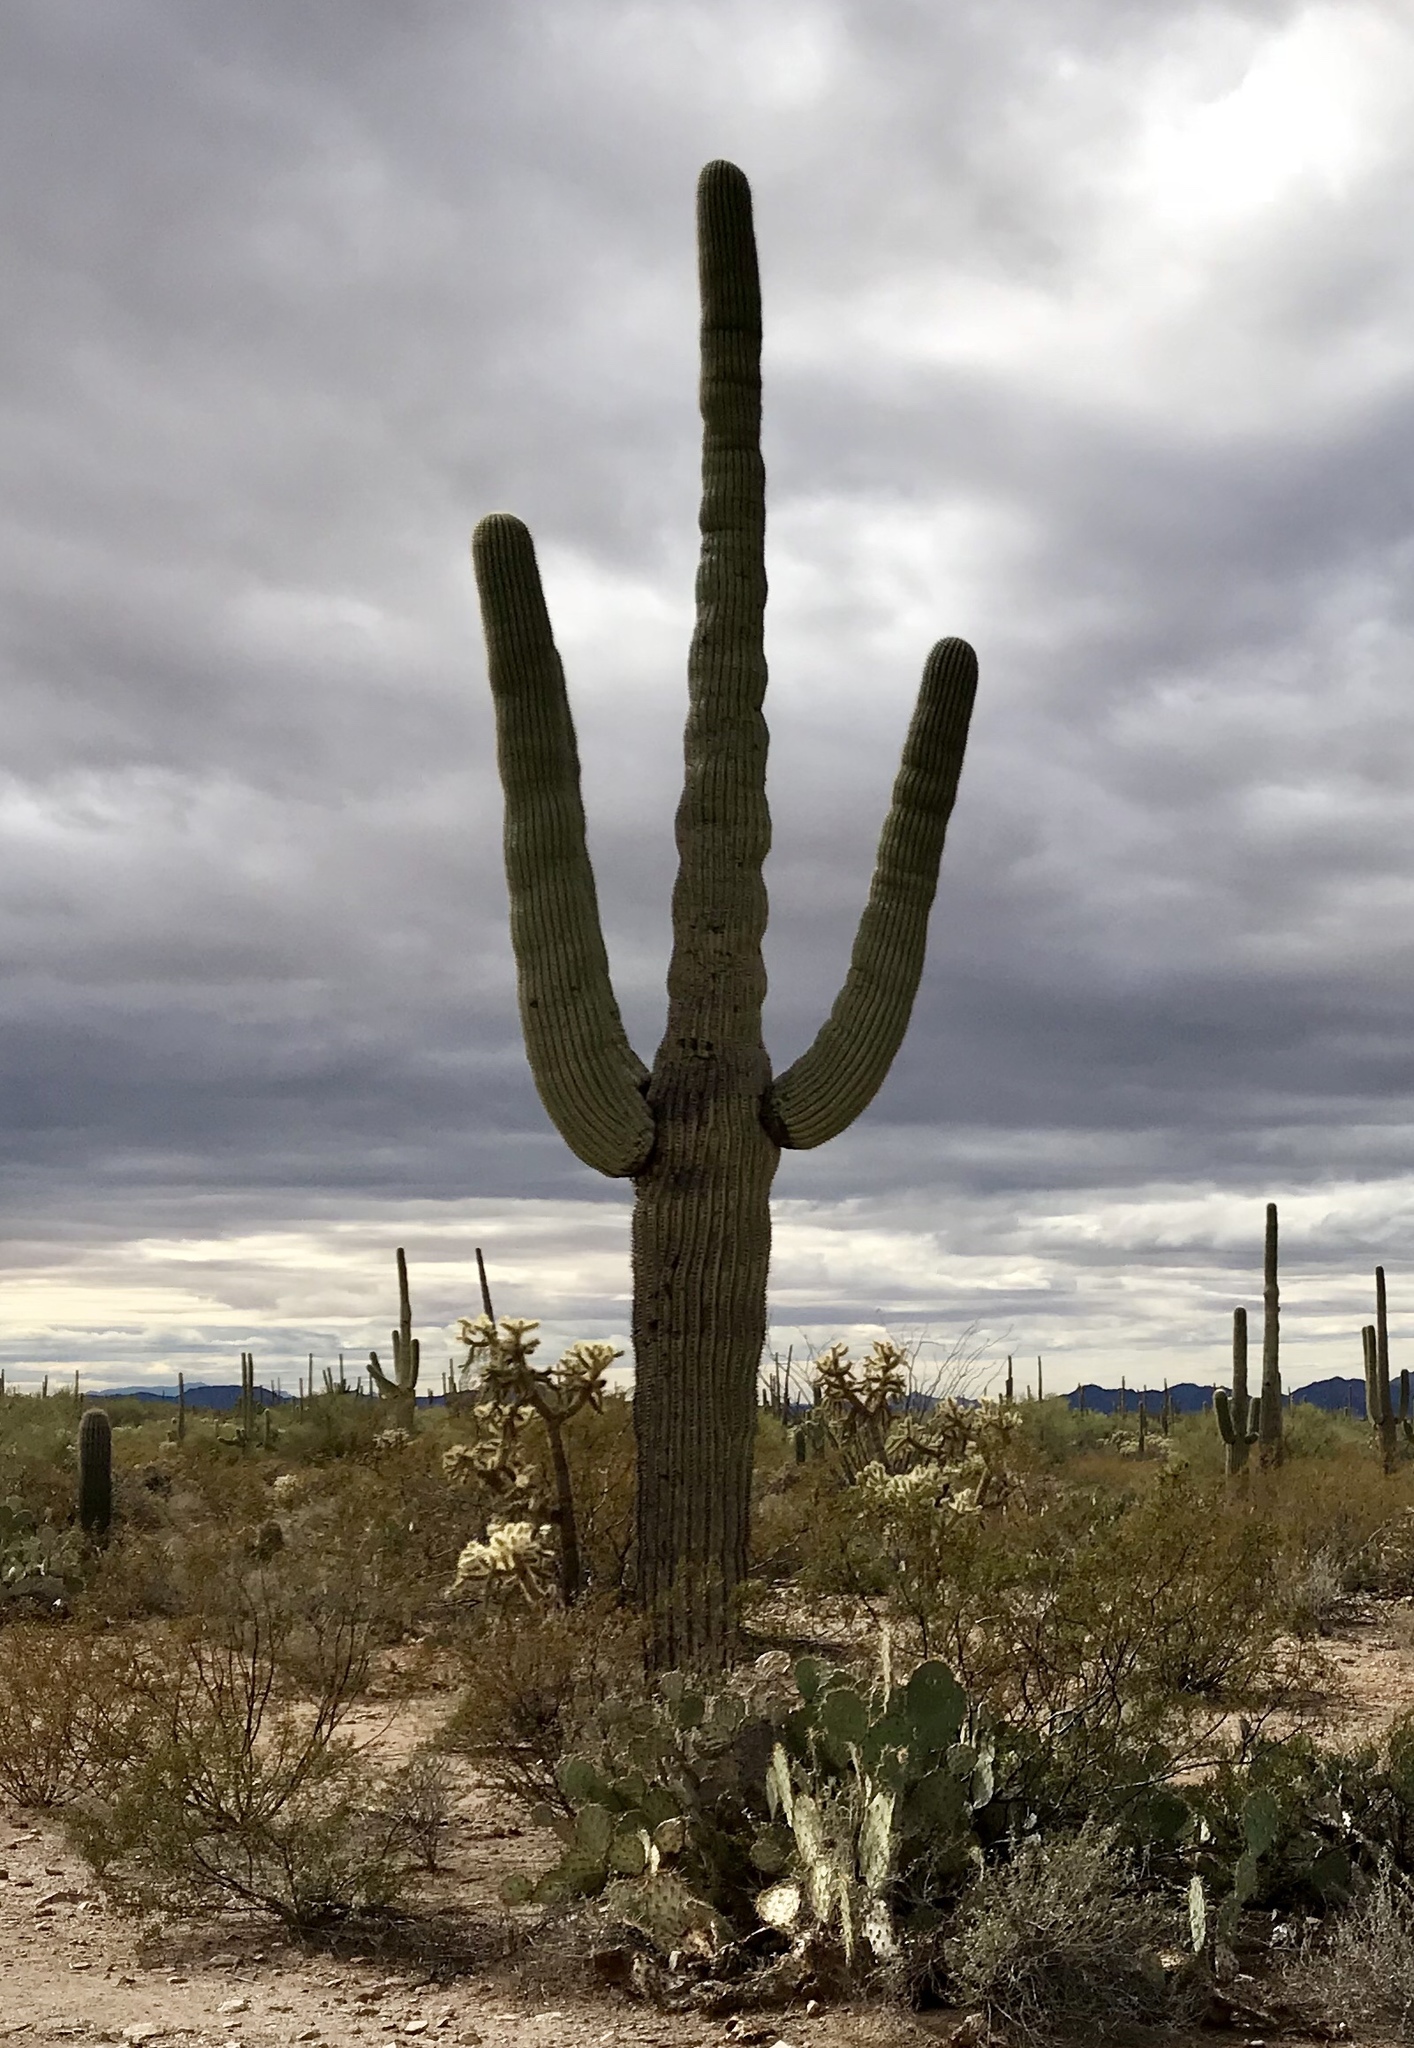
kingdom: Plantae
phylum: Tracheophyta
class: Magnoliopsida
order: Caryophyllales
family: Cactaceae
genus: Carnegiea
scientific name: Carnegiea gigantea
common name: Saguaro
